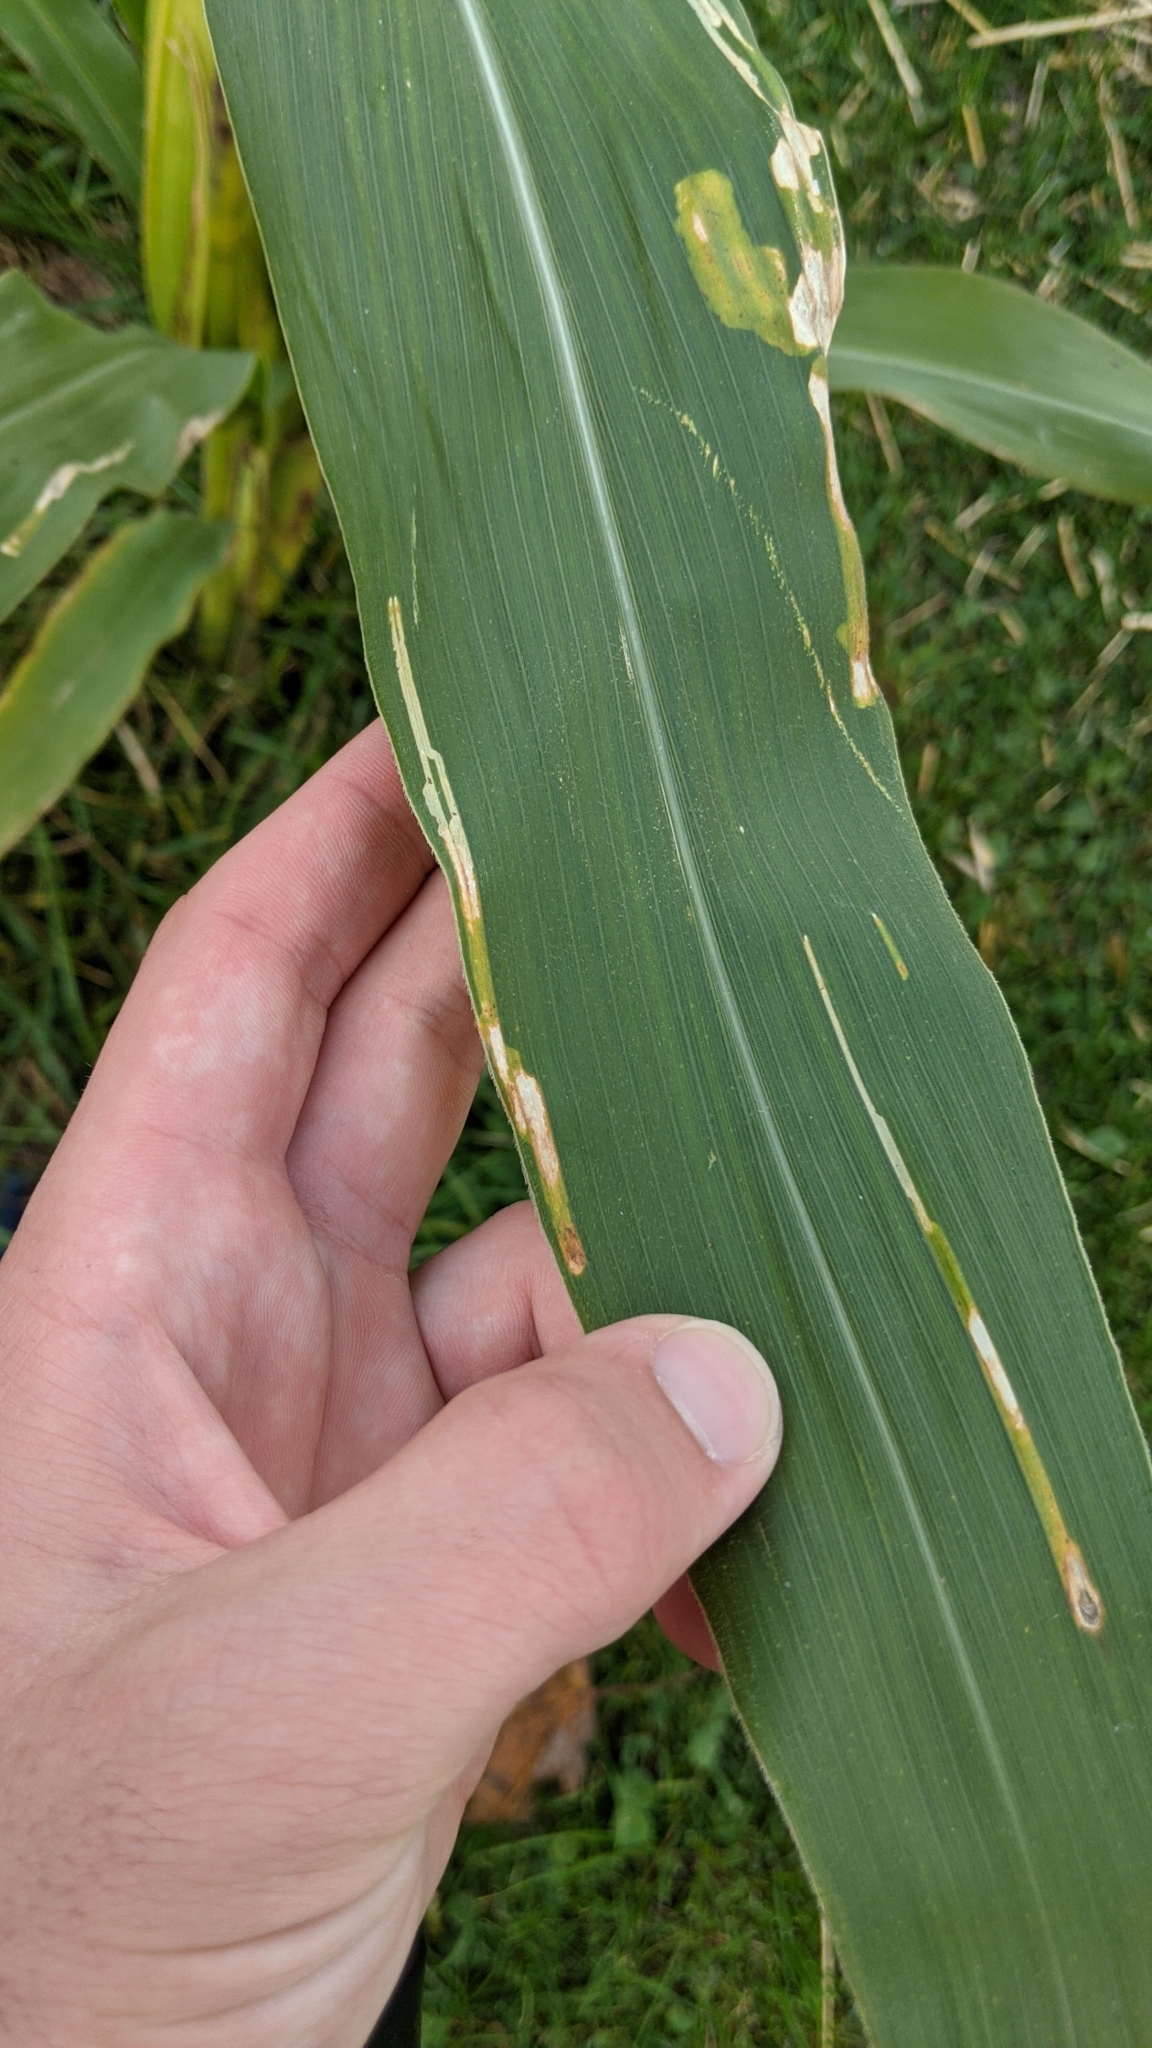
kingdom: Animalia
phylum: Arthropoda
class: Insecta
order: Diptera
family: Agromyzidae
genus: Agromyza
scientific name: Agromyza parvicornis
